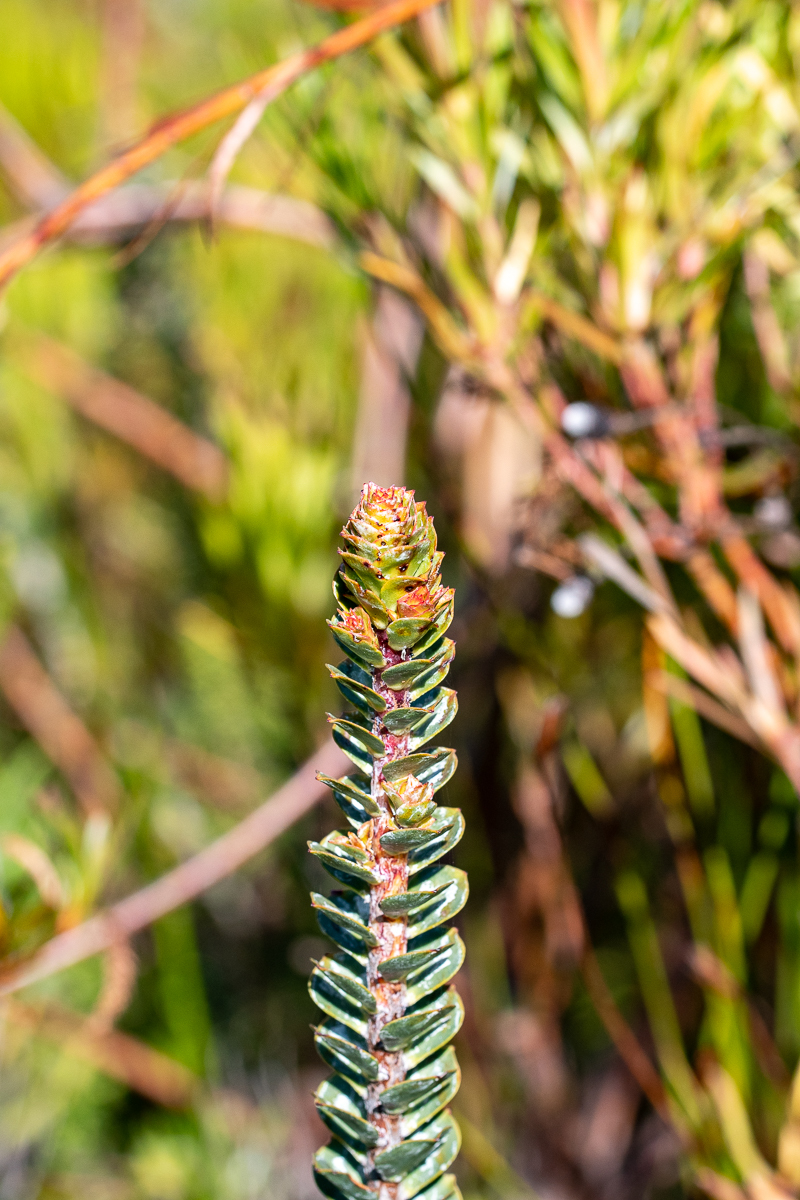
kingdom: Plantae
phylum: Tracheophyta
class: Magnoliopsida
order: Myrtales
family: Penaeaceae
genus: Saltera
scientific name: Saltera sarcocolla
